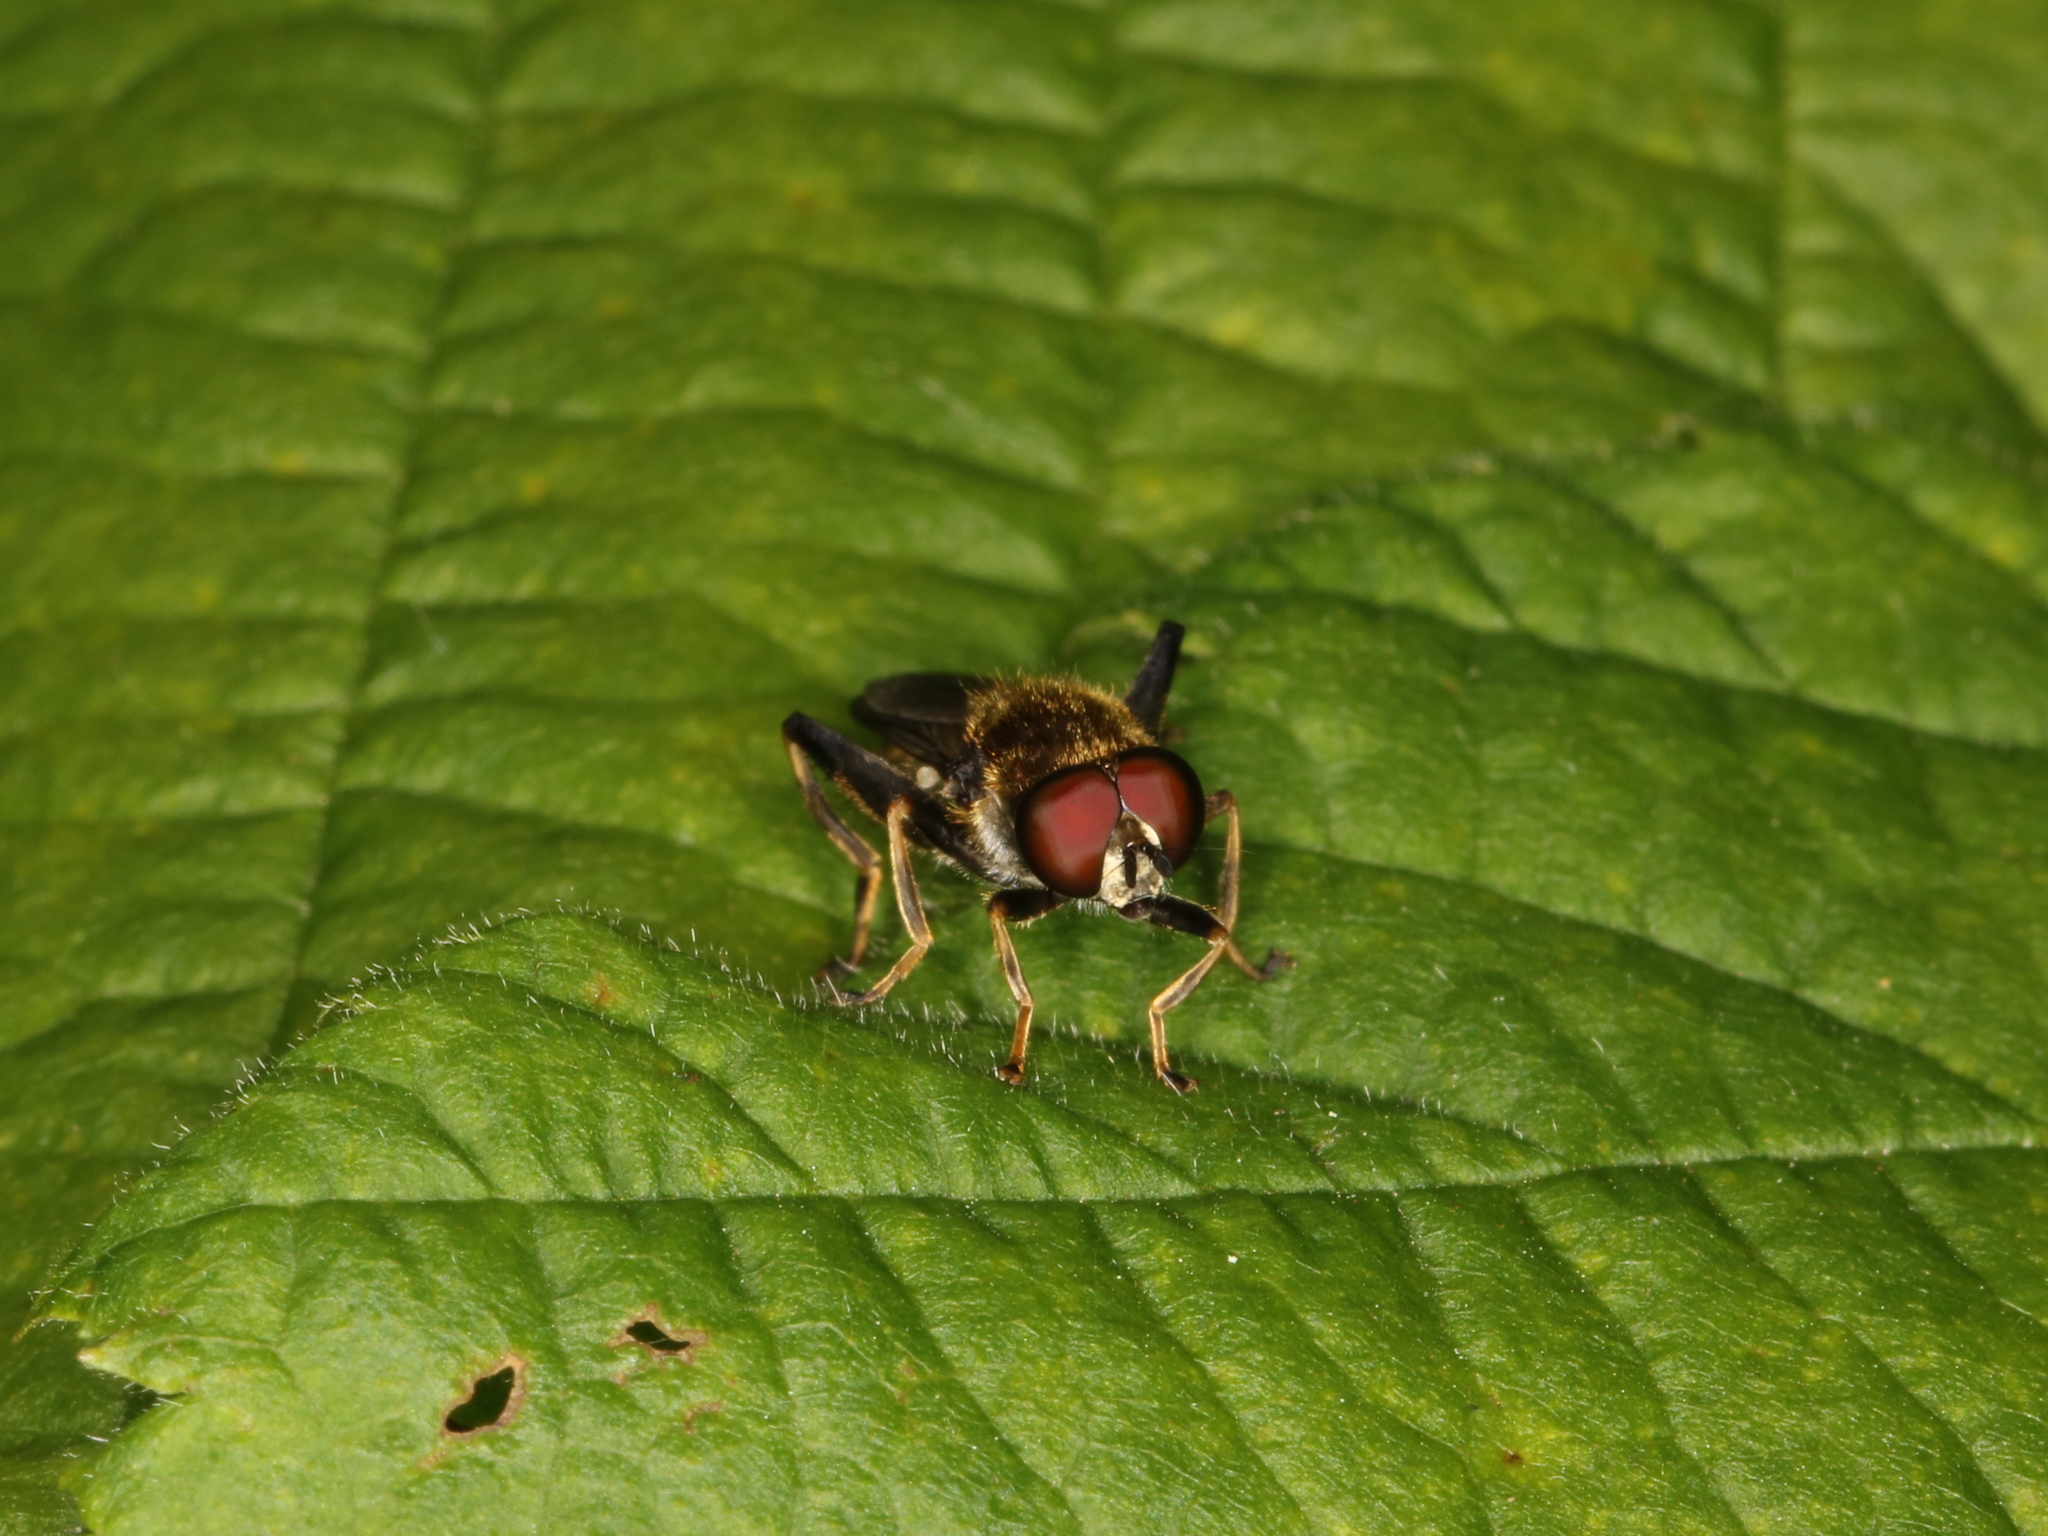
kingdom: Animalia
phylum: Arthropoda
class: Insecta
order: Diptera
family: Syrphidae
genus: Xylota
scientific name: Xylota segnis
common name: Brown-toed forest fly
